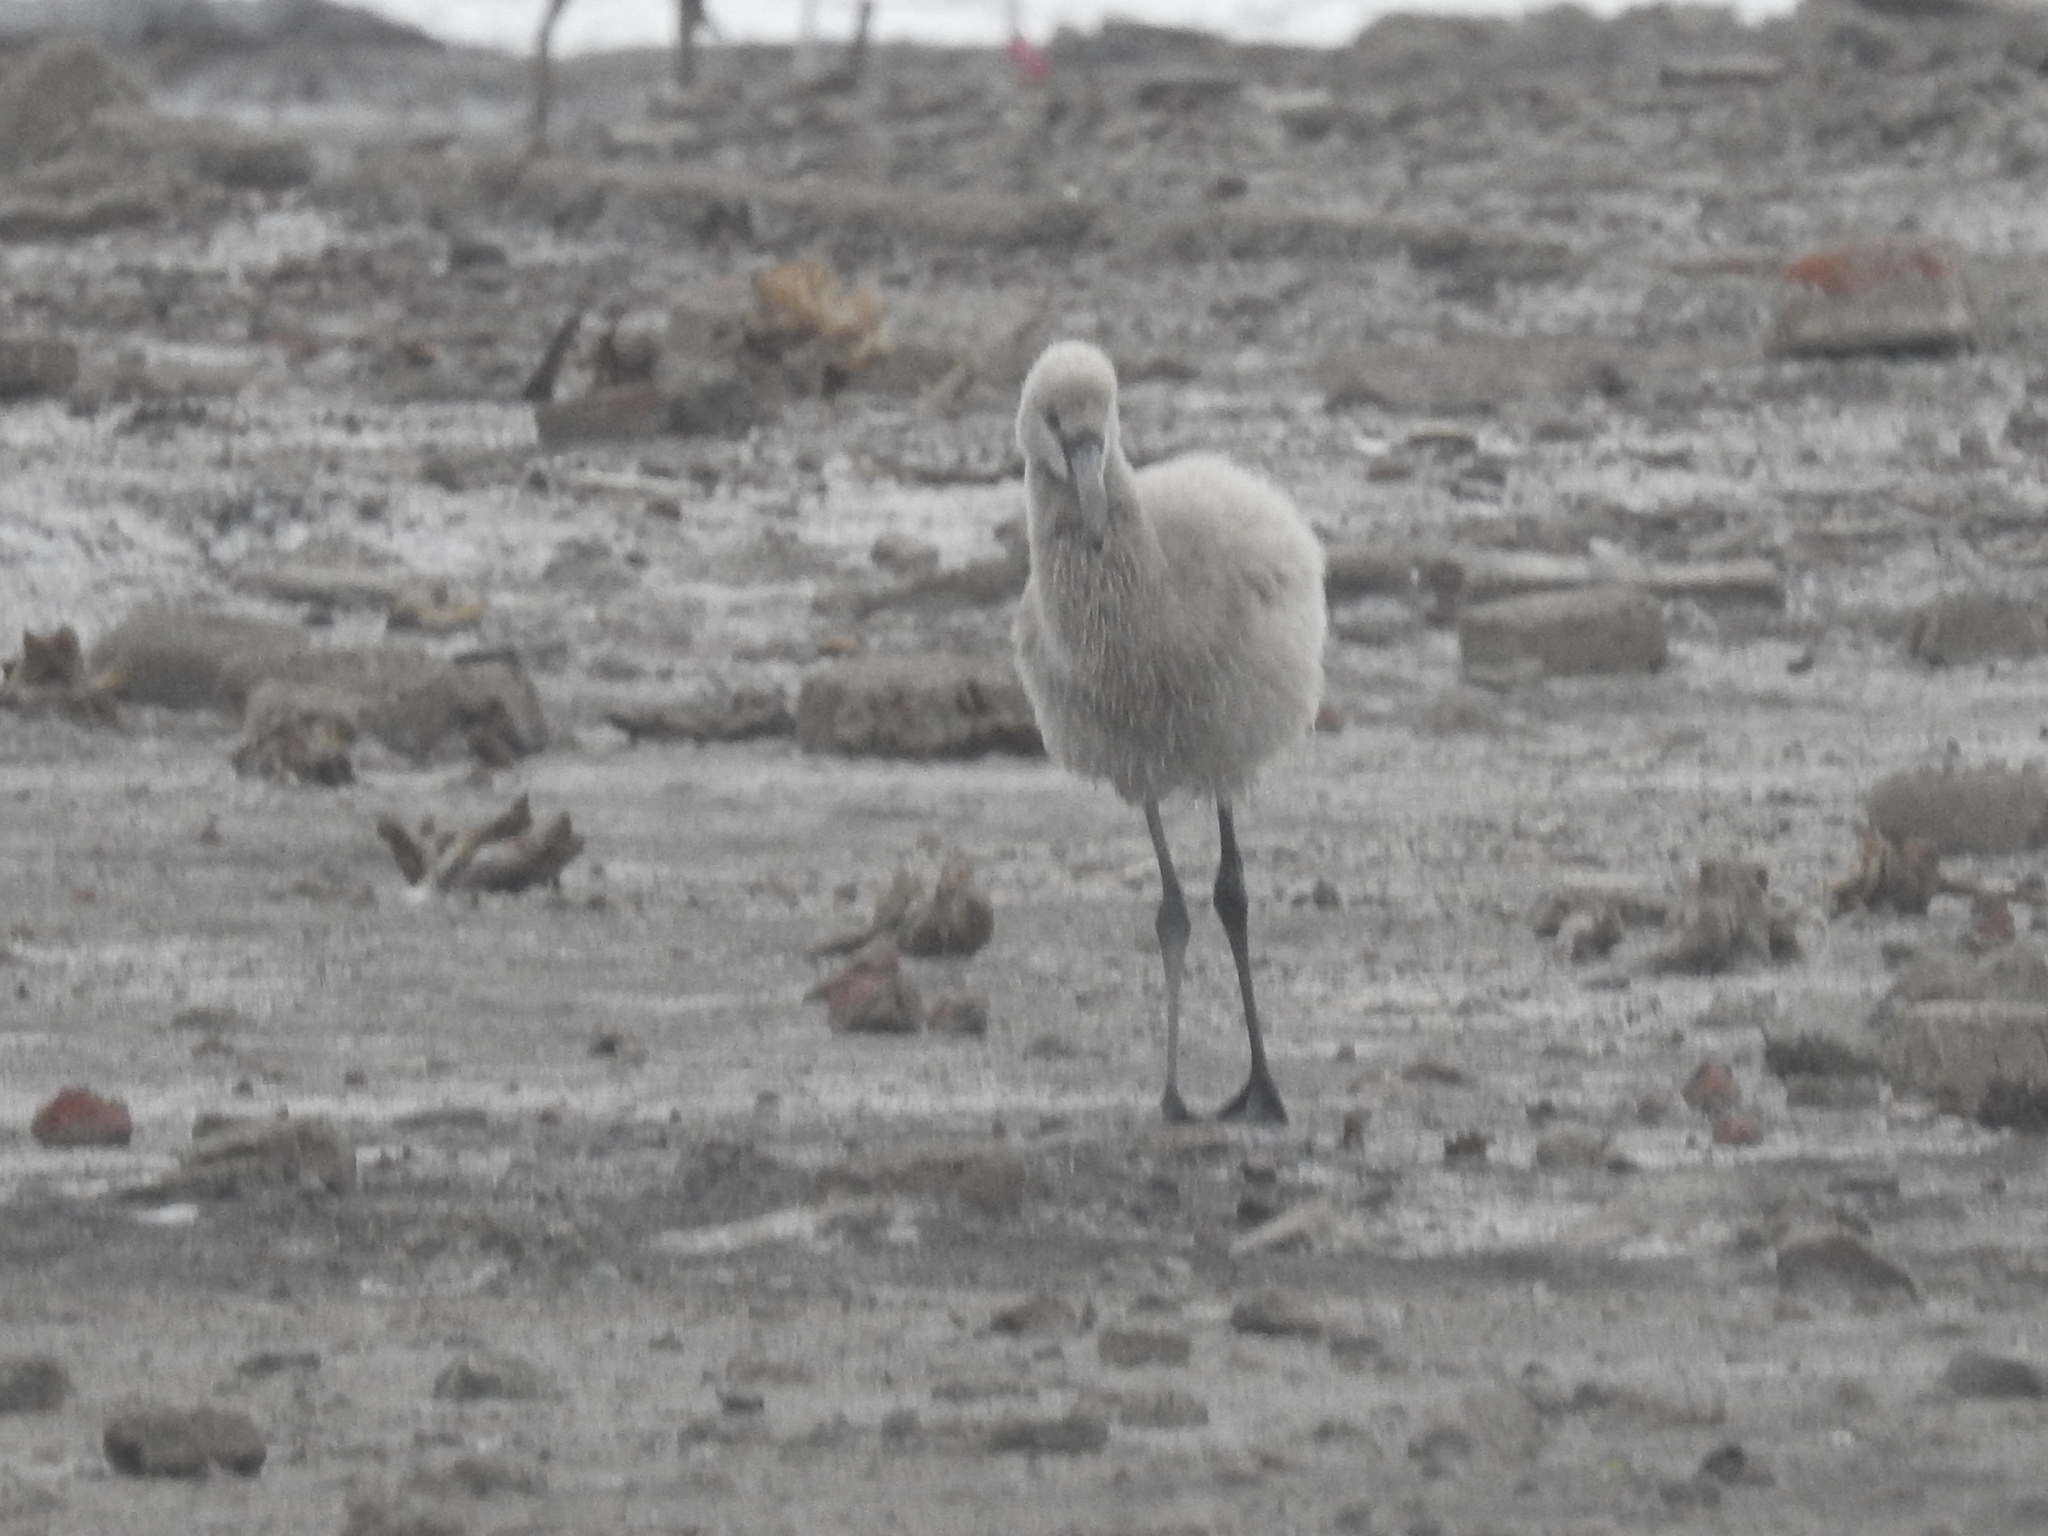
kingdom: Animalia
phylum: Chordata
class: Aves
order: Phoenicopteriformes
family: Phoenicopteridae
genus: Phoenicopterus
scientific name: Phoenicopterus chilensis
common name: Chilean flamingo
